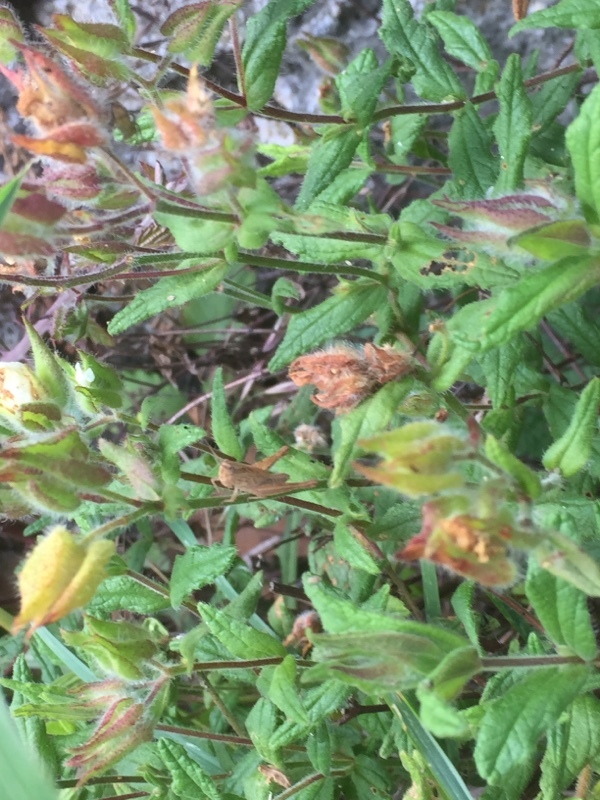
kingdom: Plantae
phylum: Tracheophyta
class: Magnoliopsida
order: Malvales
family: Cistaceae
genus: Cistus
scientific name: Cistus inflatus
